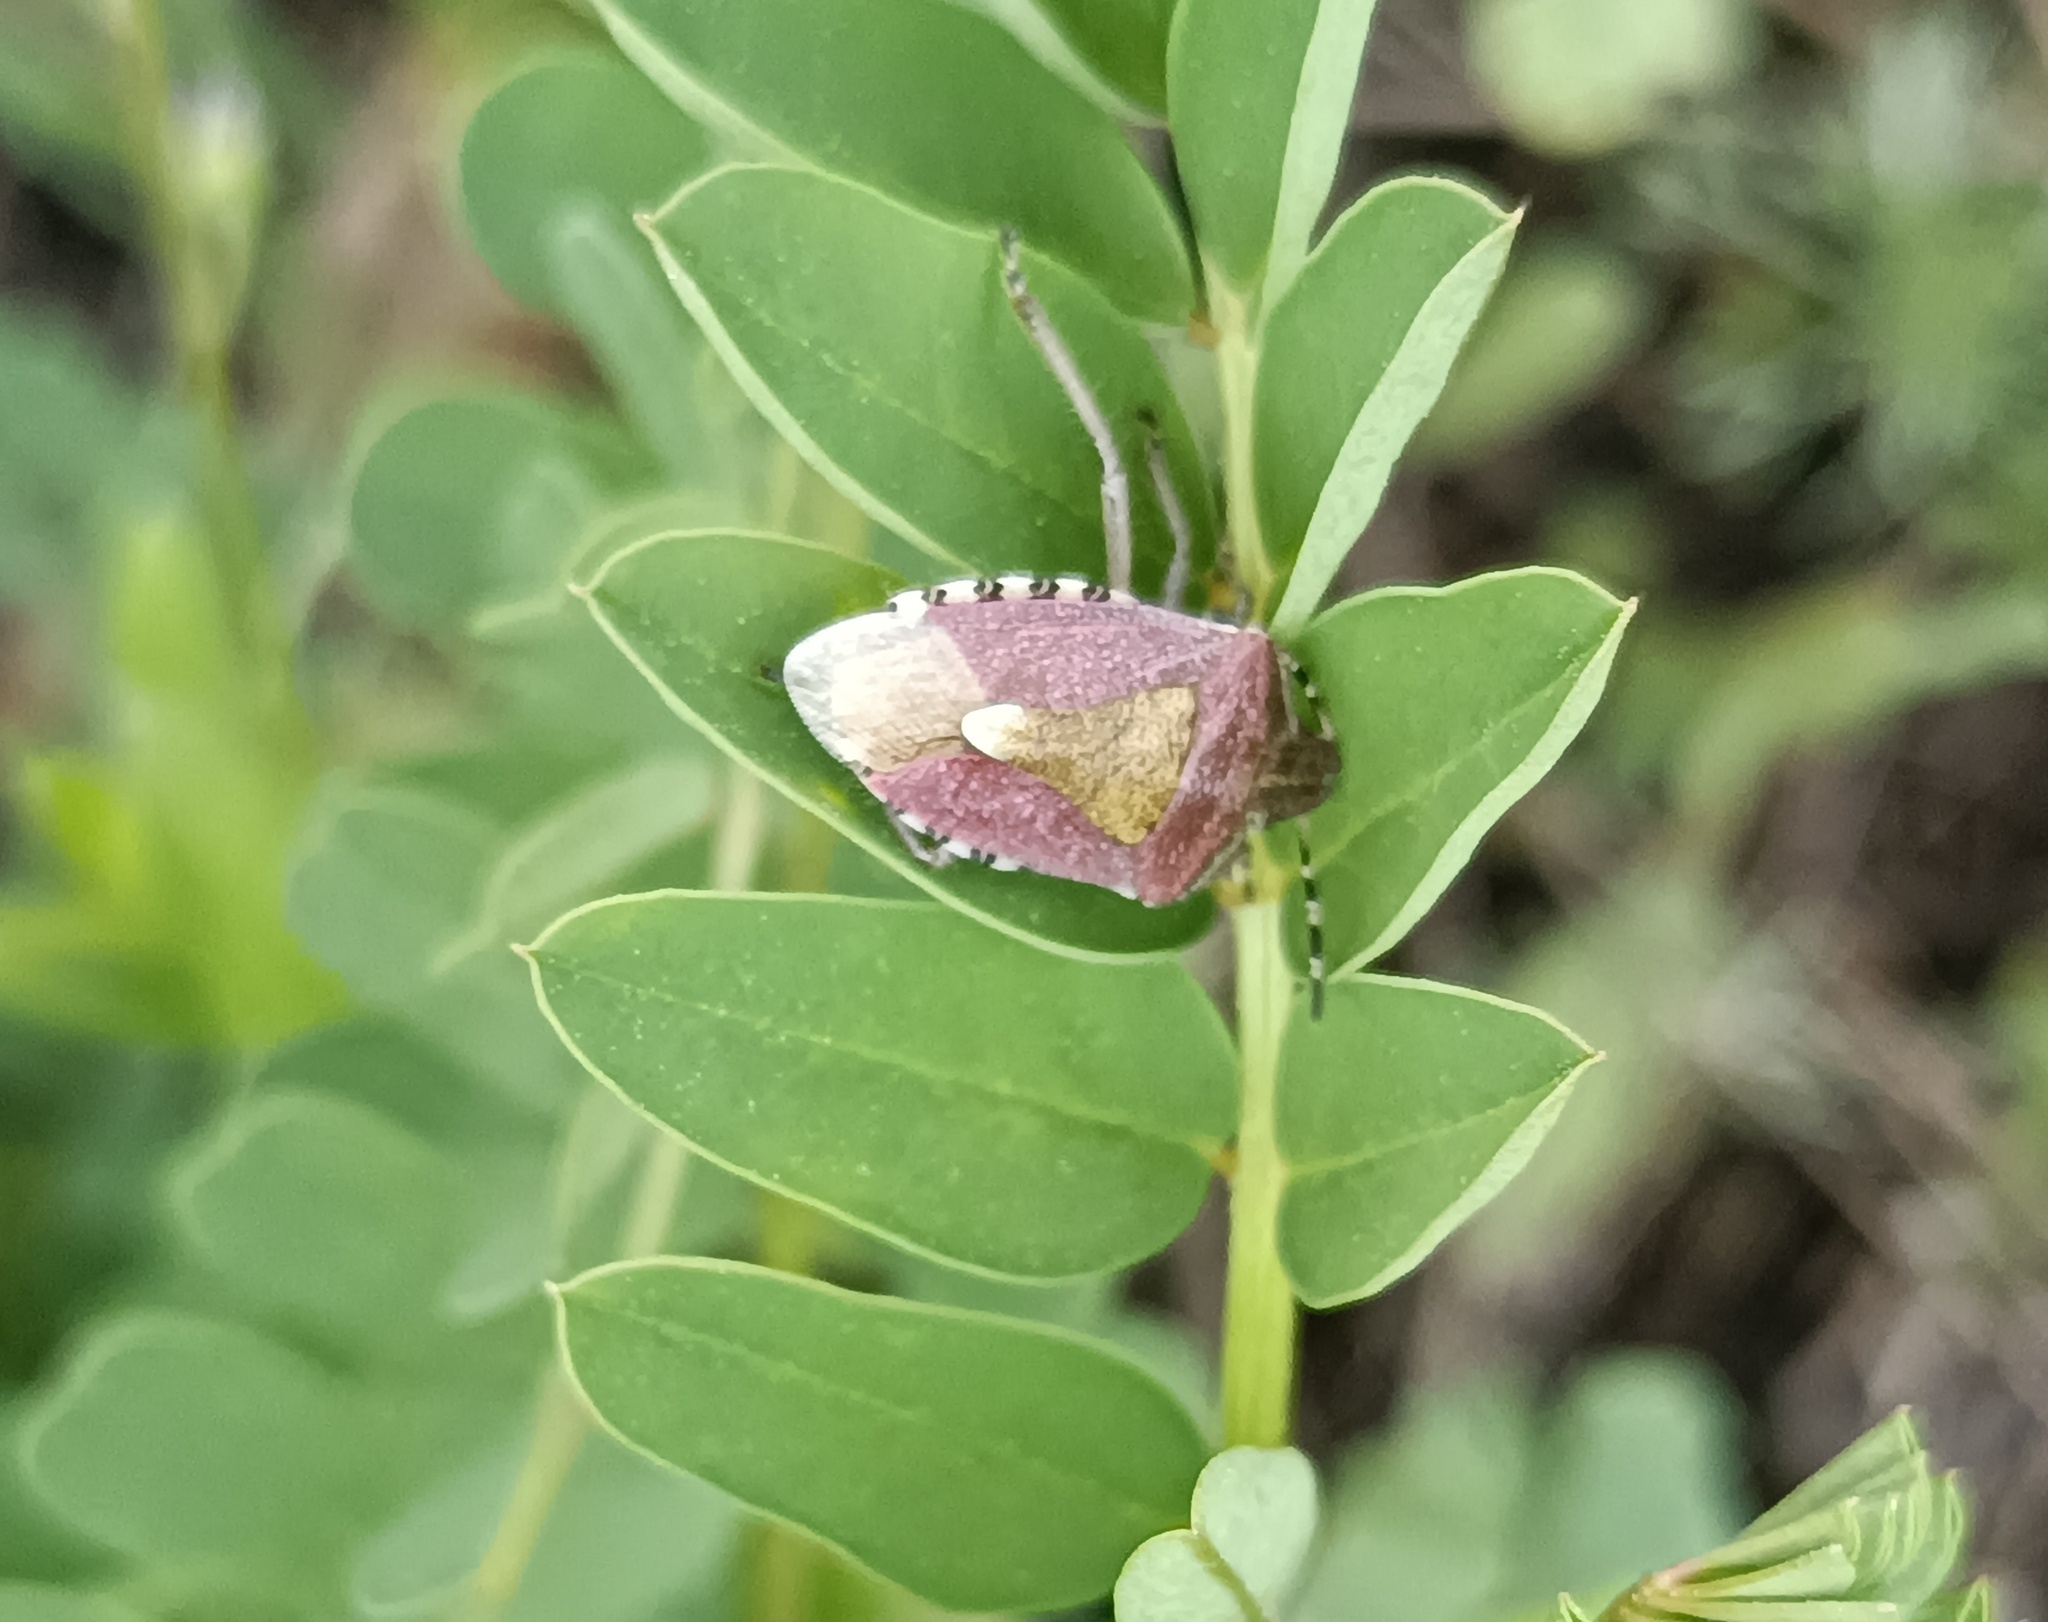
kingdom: Animalia
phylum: Arthropoda
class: Insecta
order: Hemiptera
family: Pentatomidae
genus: Dolycoris
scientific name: Dolycoris baccarum
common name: Sloe bug
